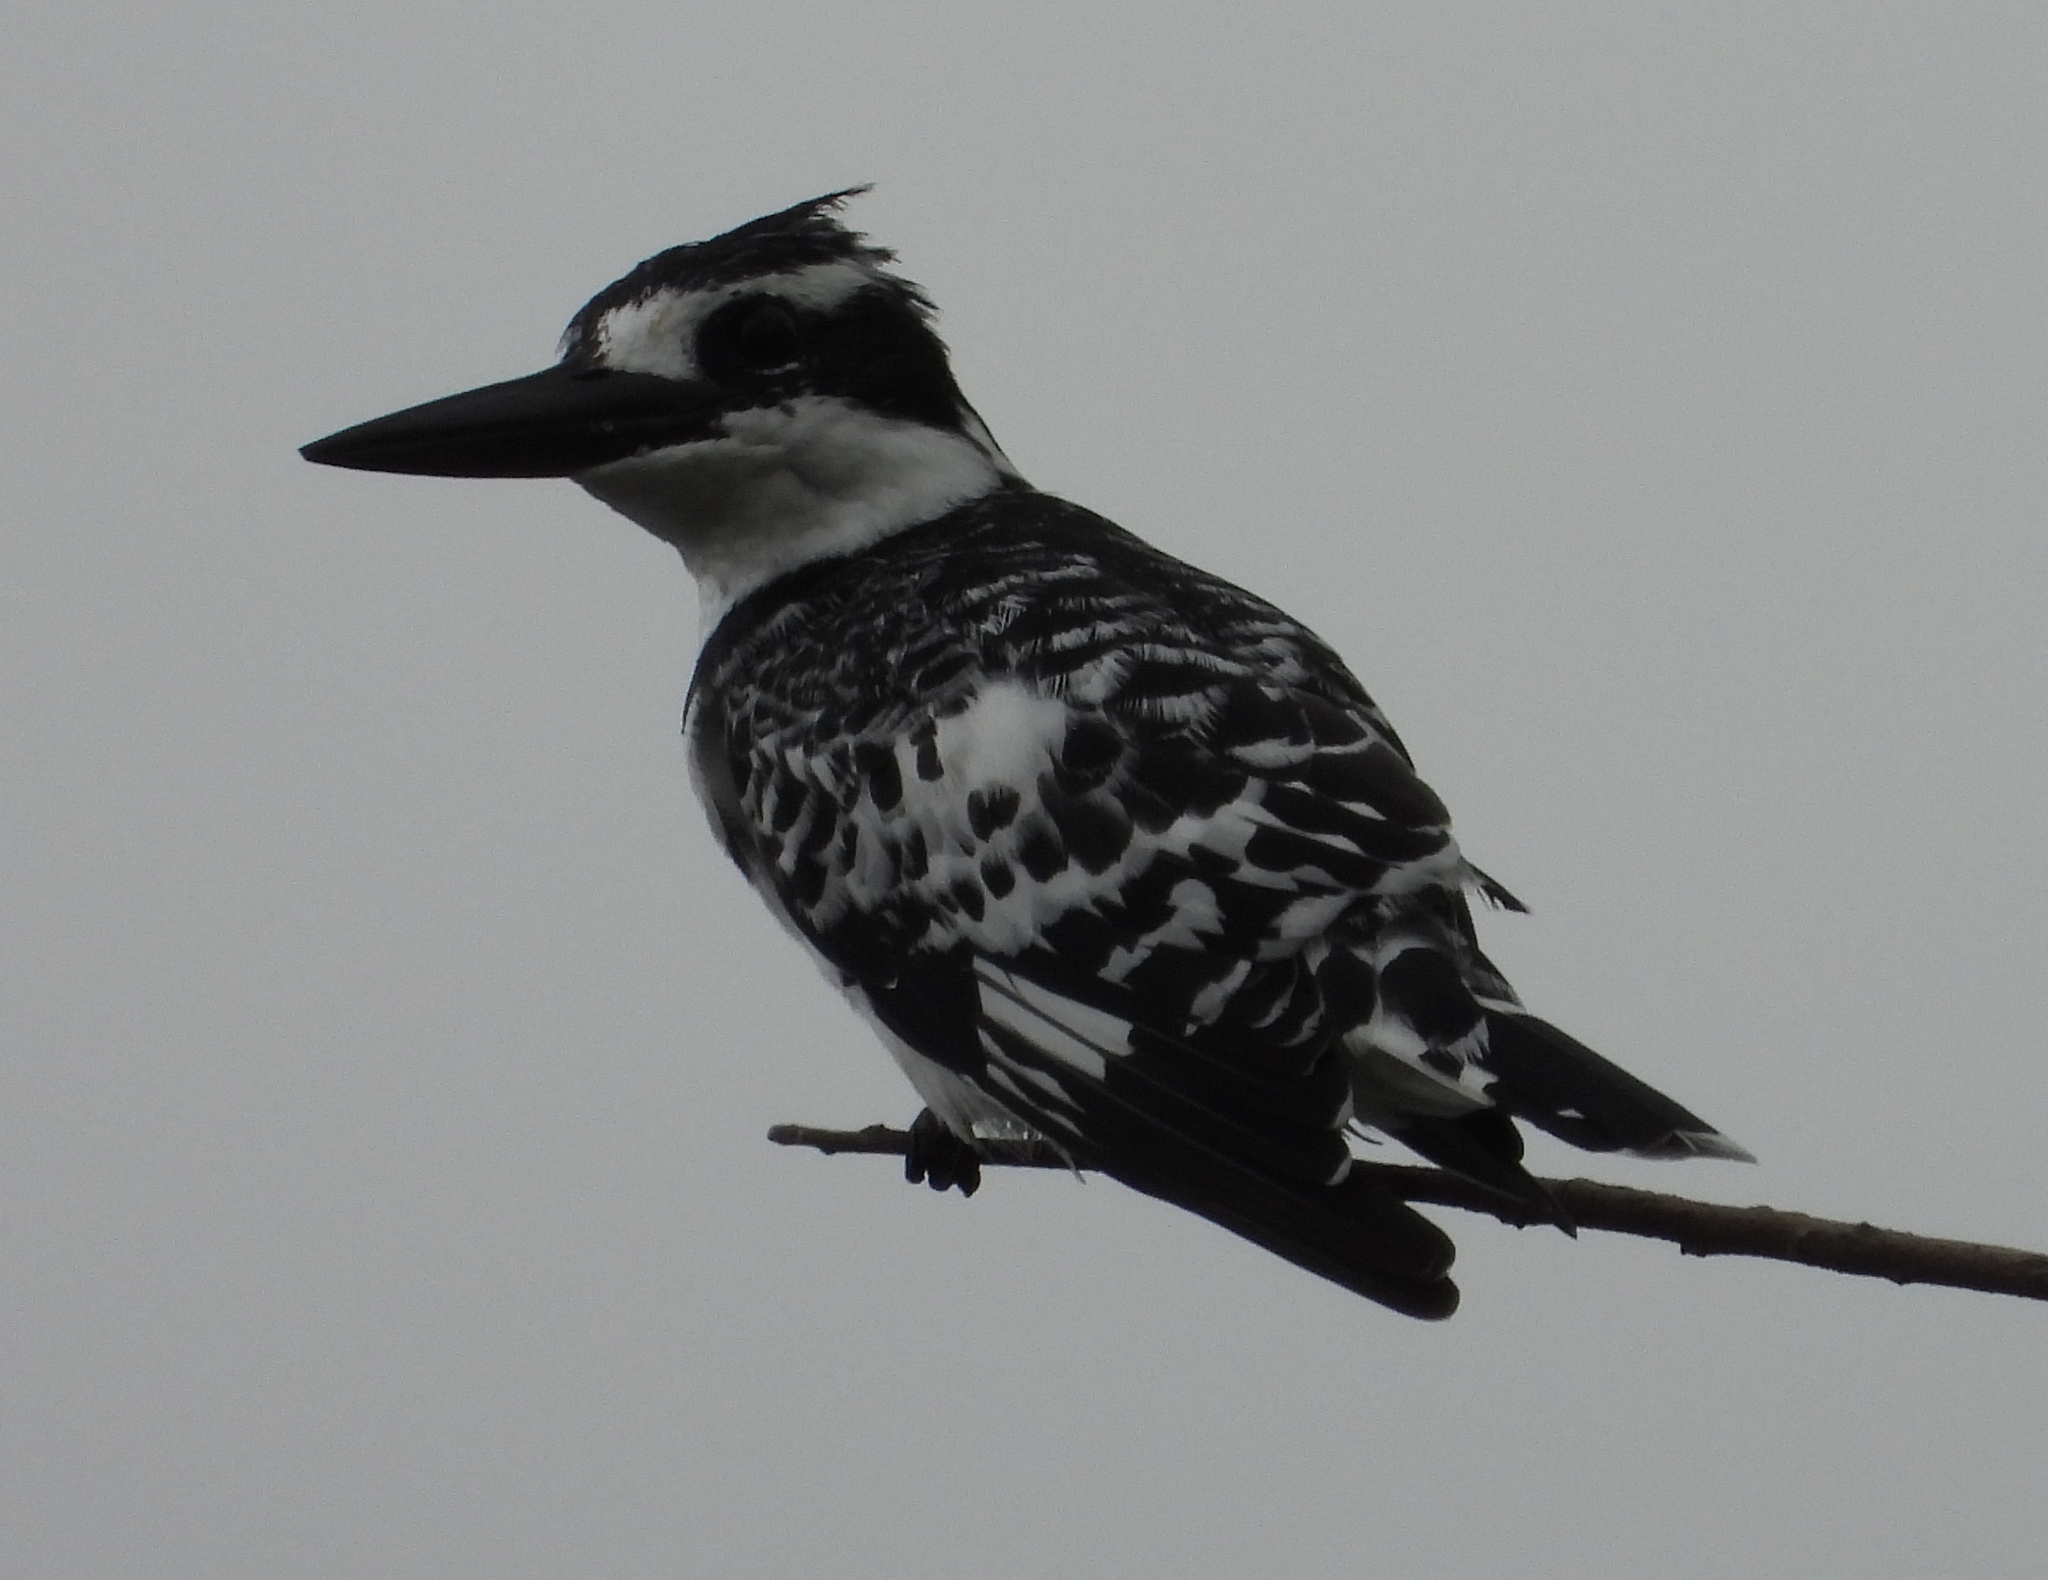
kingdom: Animalia
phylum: Chordata
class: Aves
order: Coraciiformes
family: Alcedinidae
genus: Ceryle
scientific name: Ceryle rudis
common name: Pied kingfisher
